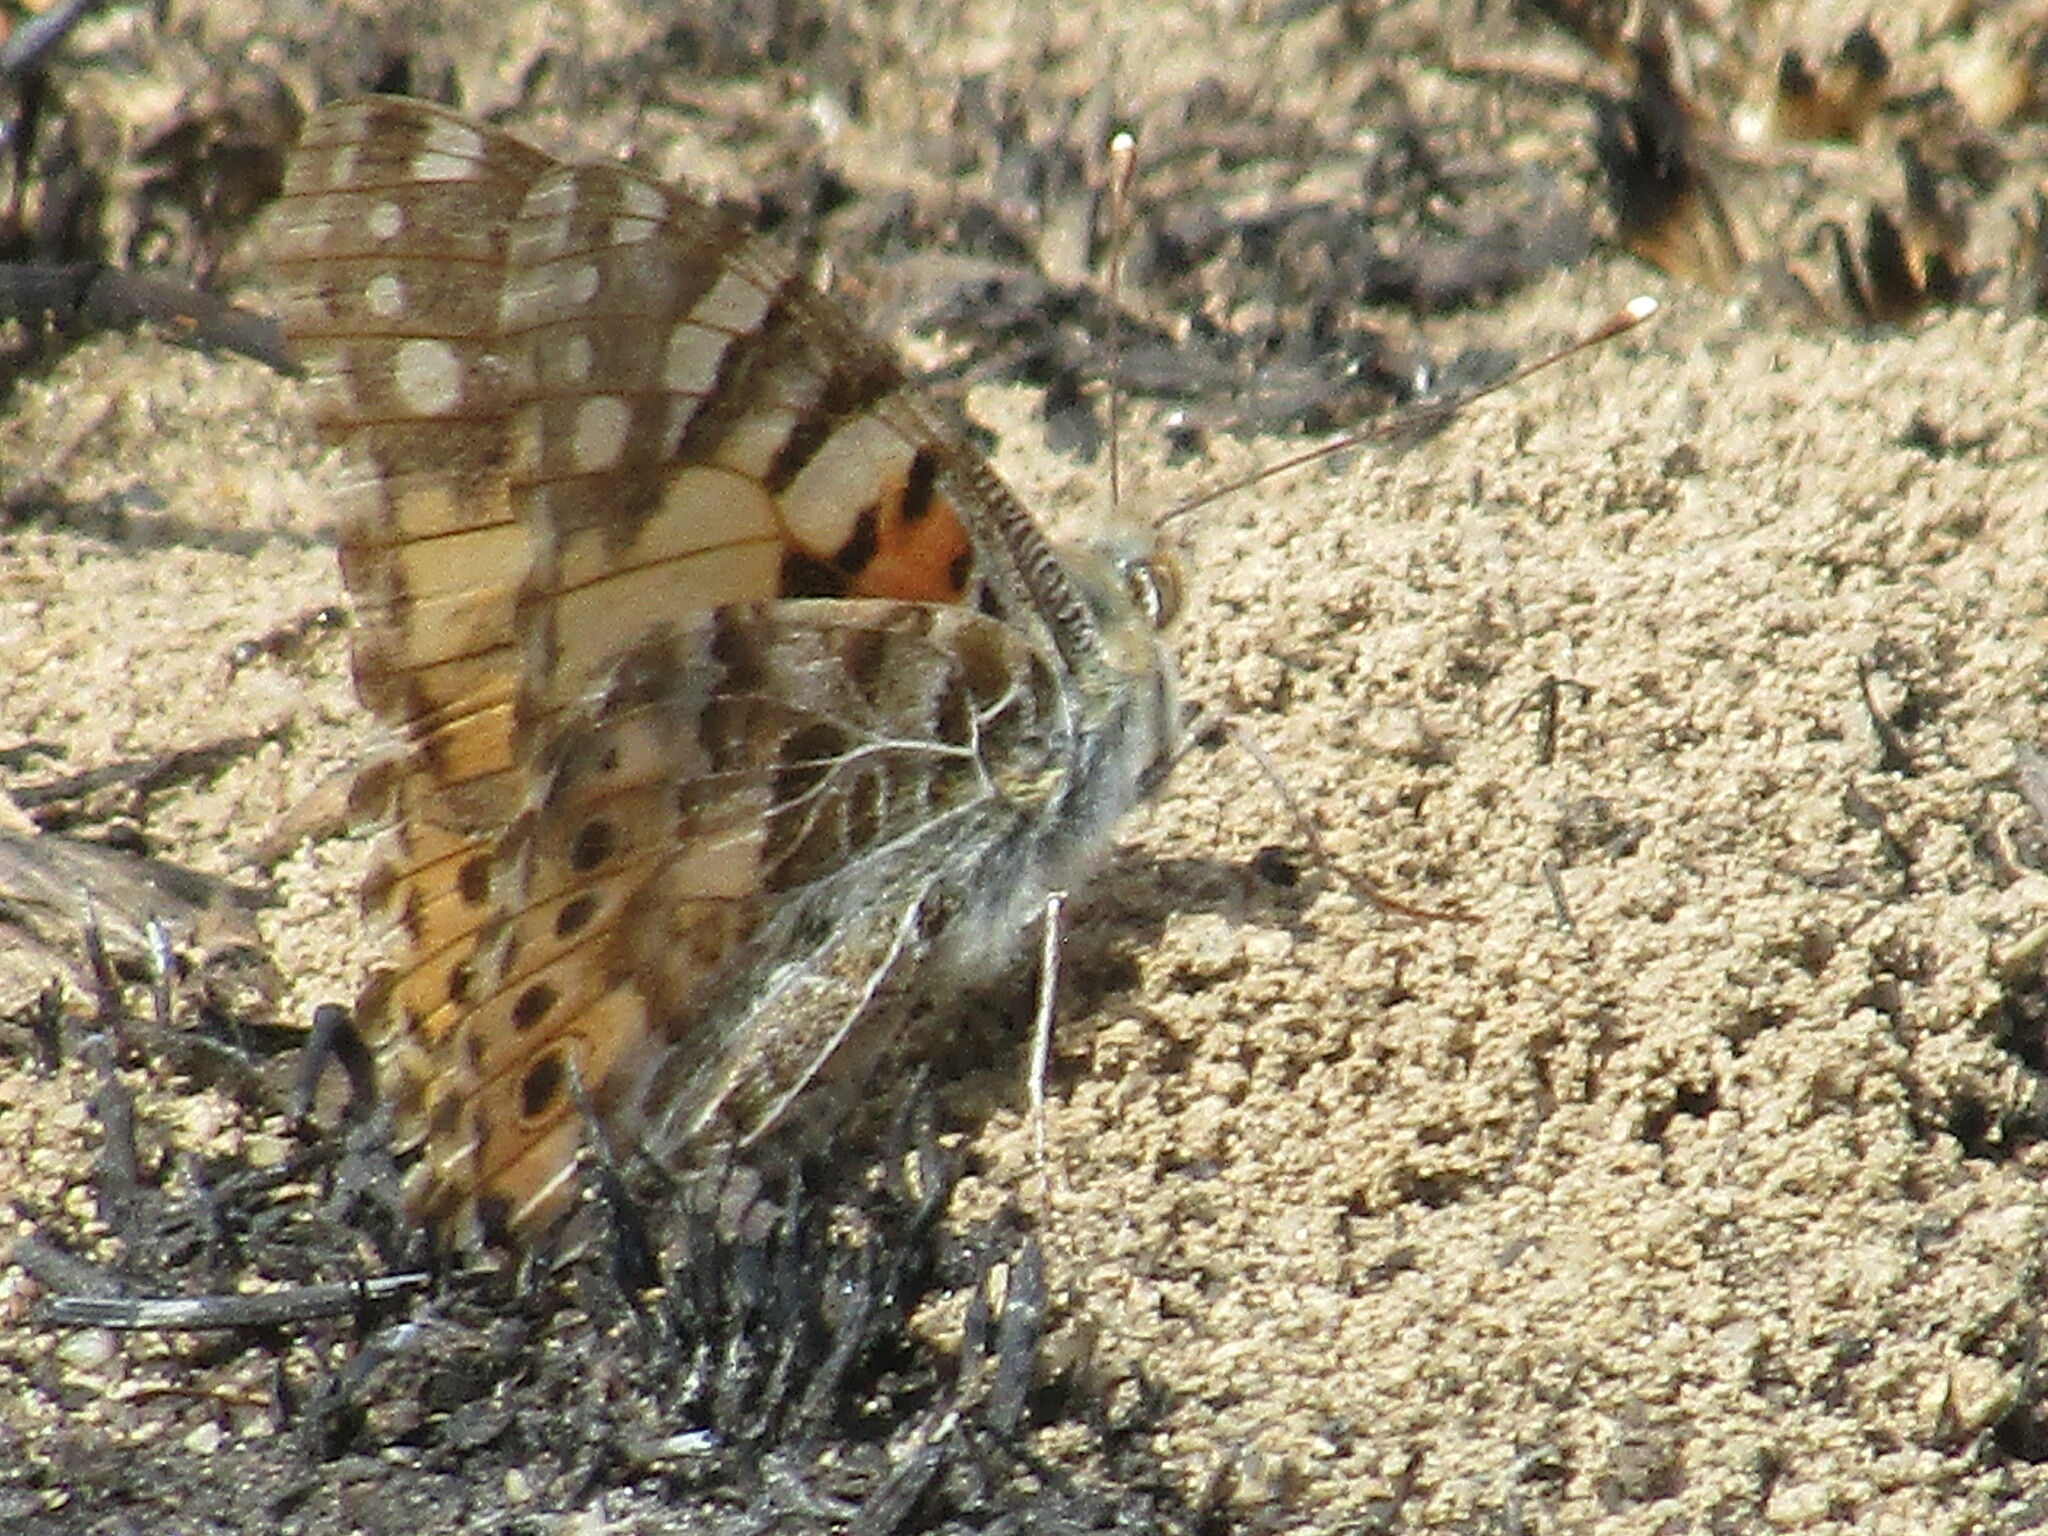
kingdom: Animalia
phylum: Arthropoda
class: Insecta
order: Lepidoptera
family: Nymphalidae
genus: Vanessa
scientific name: Vanessa cardui
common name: Painted lady
